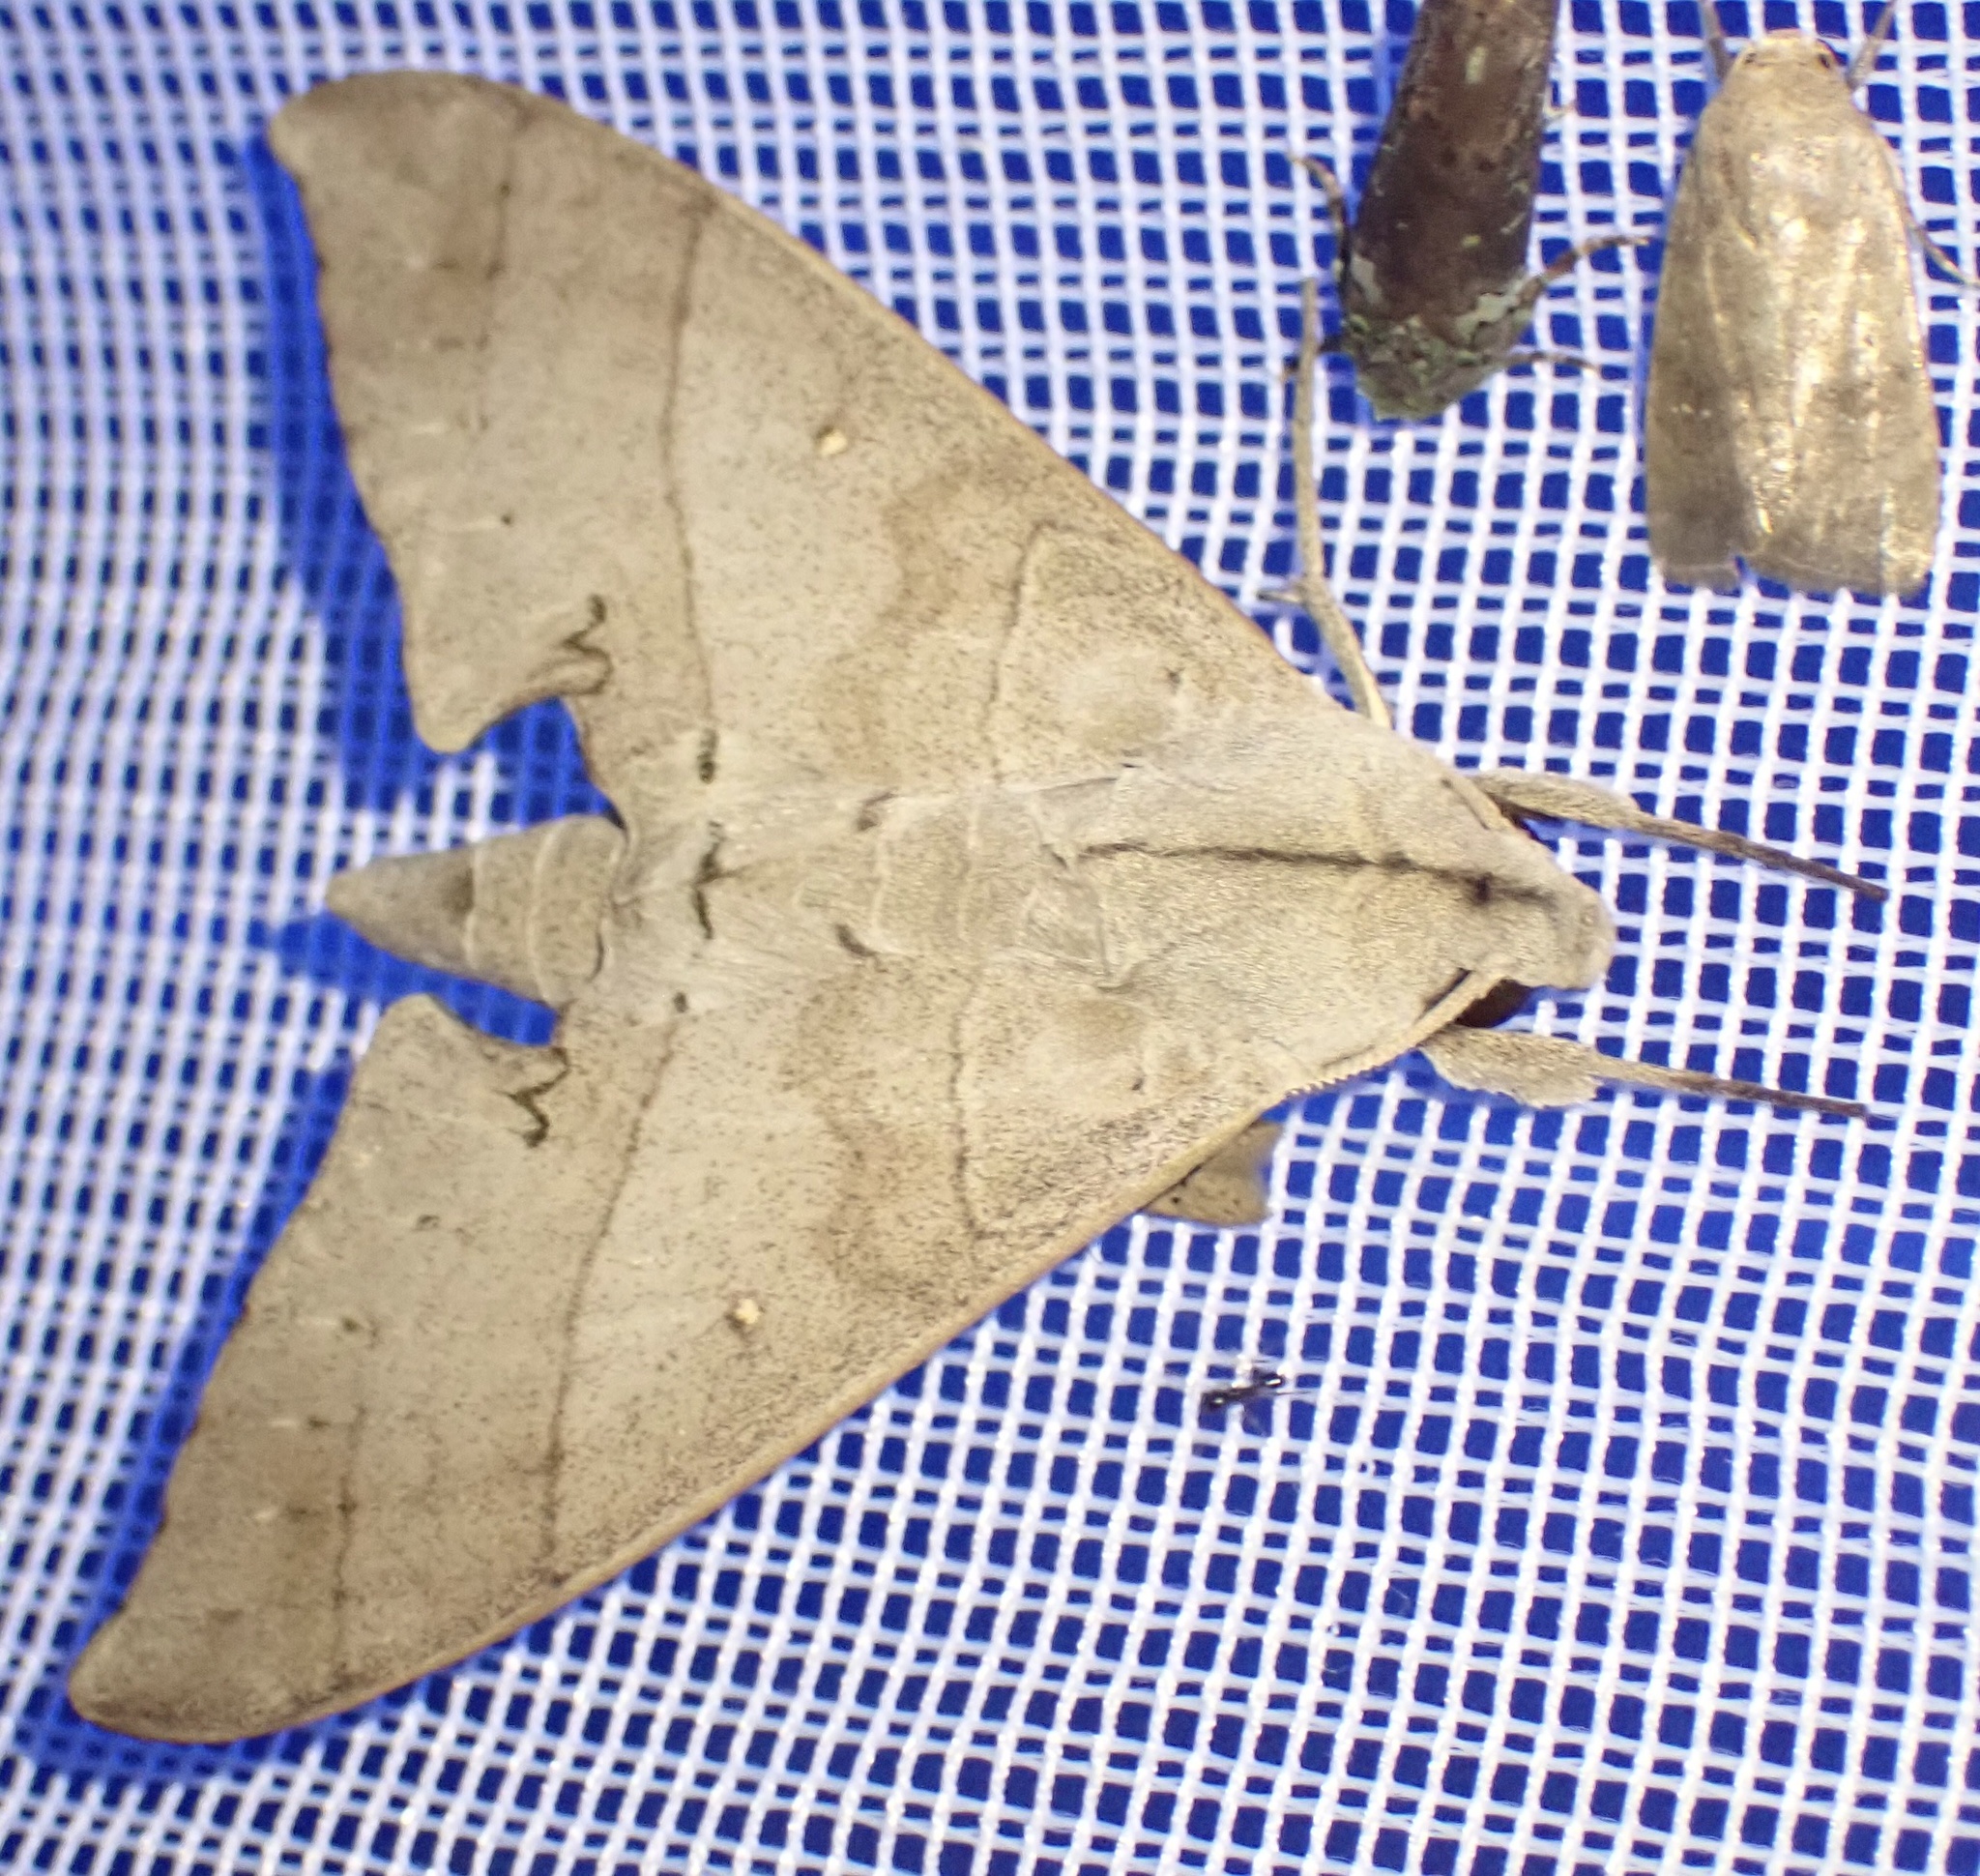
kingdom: Animalia
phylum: Arthropoda
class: Insecta
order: Lepidoptera
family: Sphingidae
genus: Polyptychus
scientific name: Polyptychus carteri
